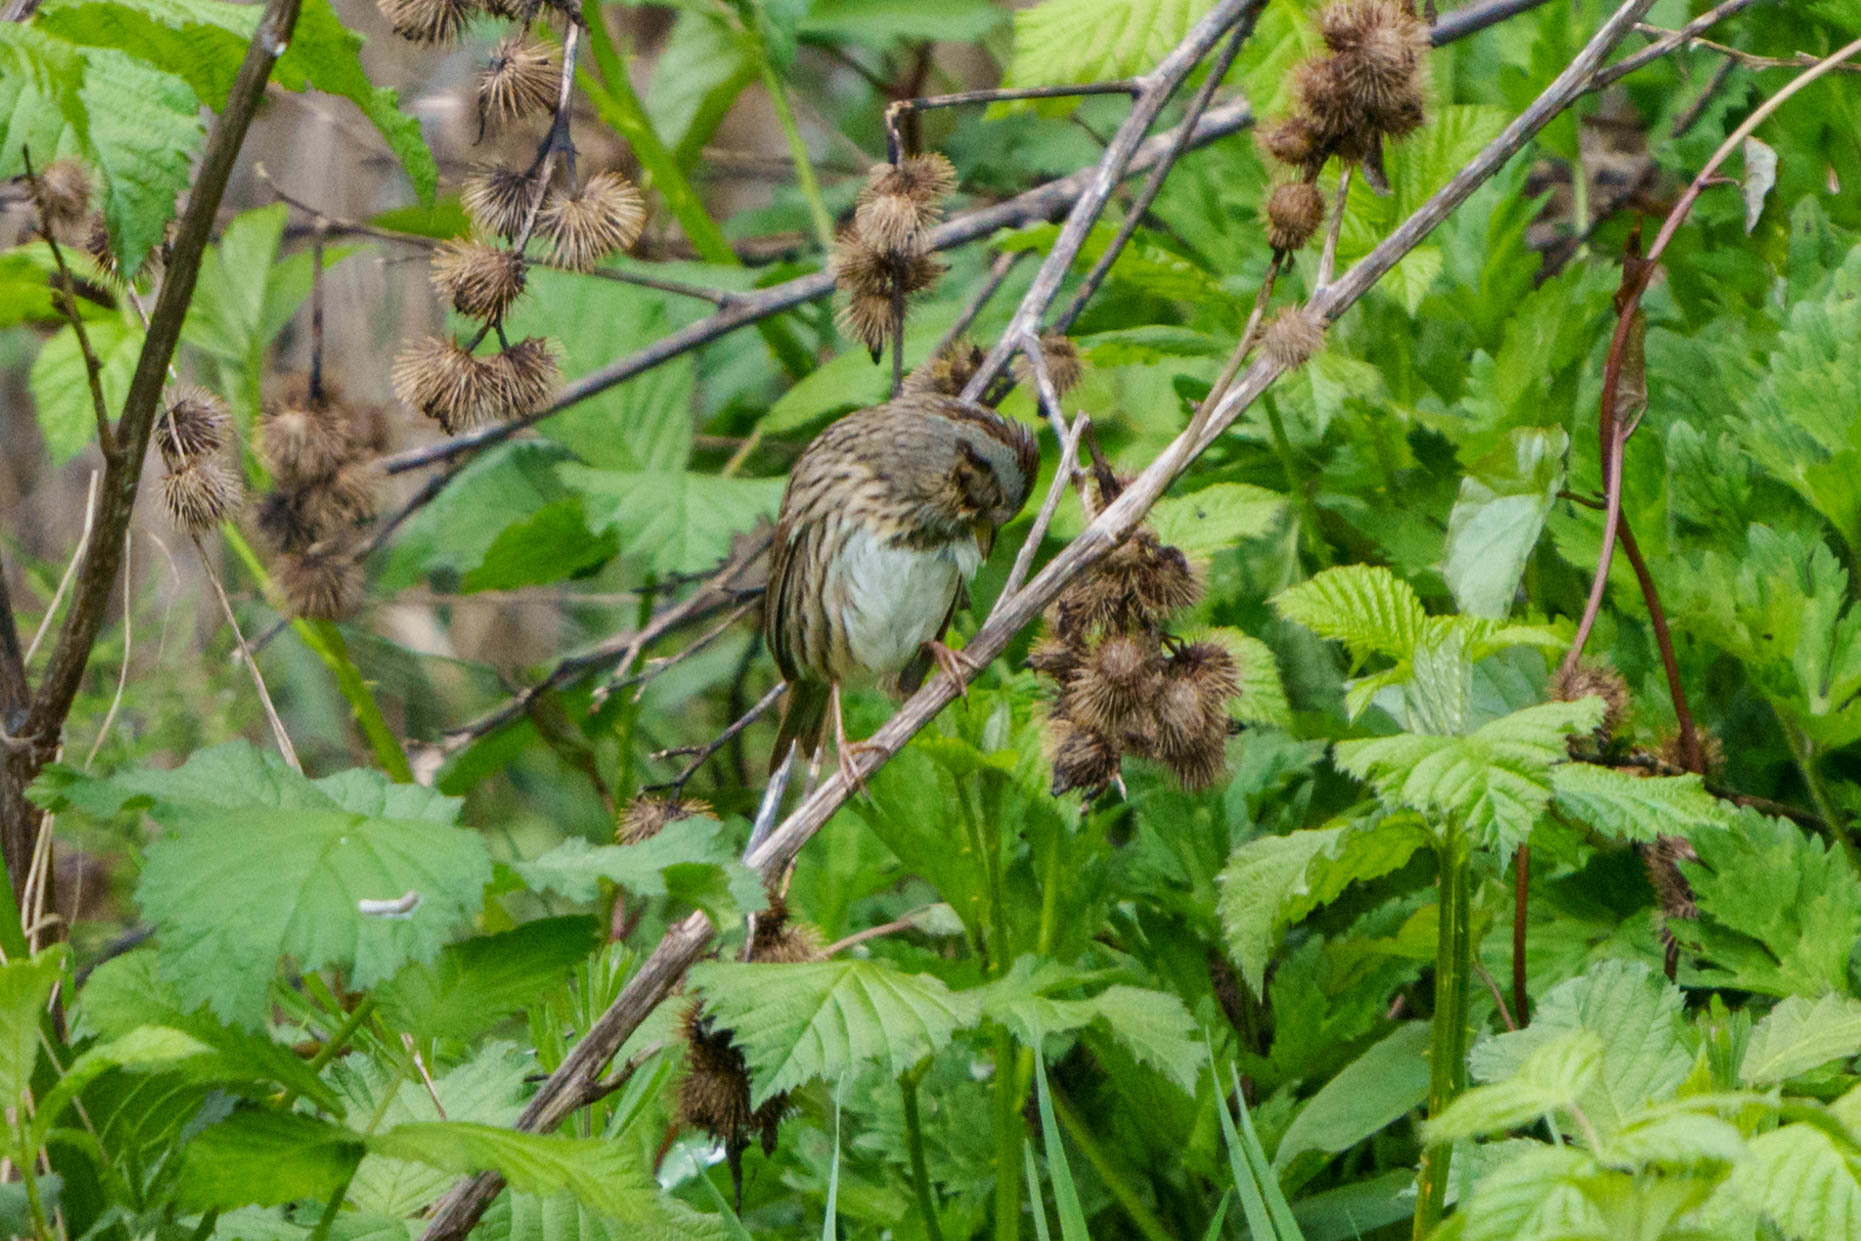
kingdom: Animalia
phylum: Chordata
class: Aves
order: Passeriformes
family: Passerellidae
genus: Melospiza
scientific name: Melospiza lincolnii
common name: Lincoln's sparrow
